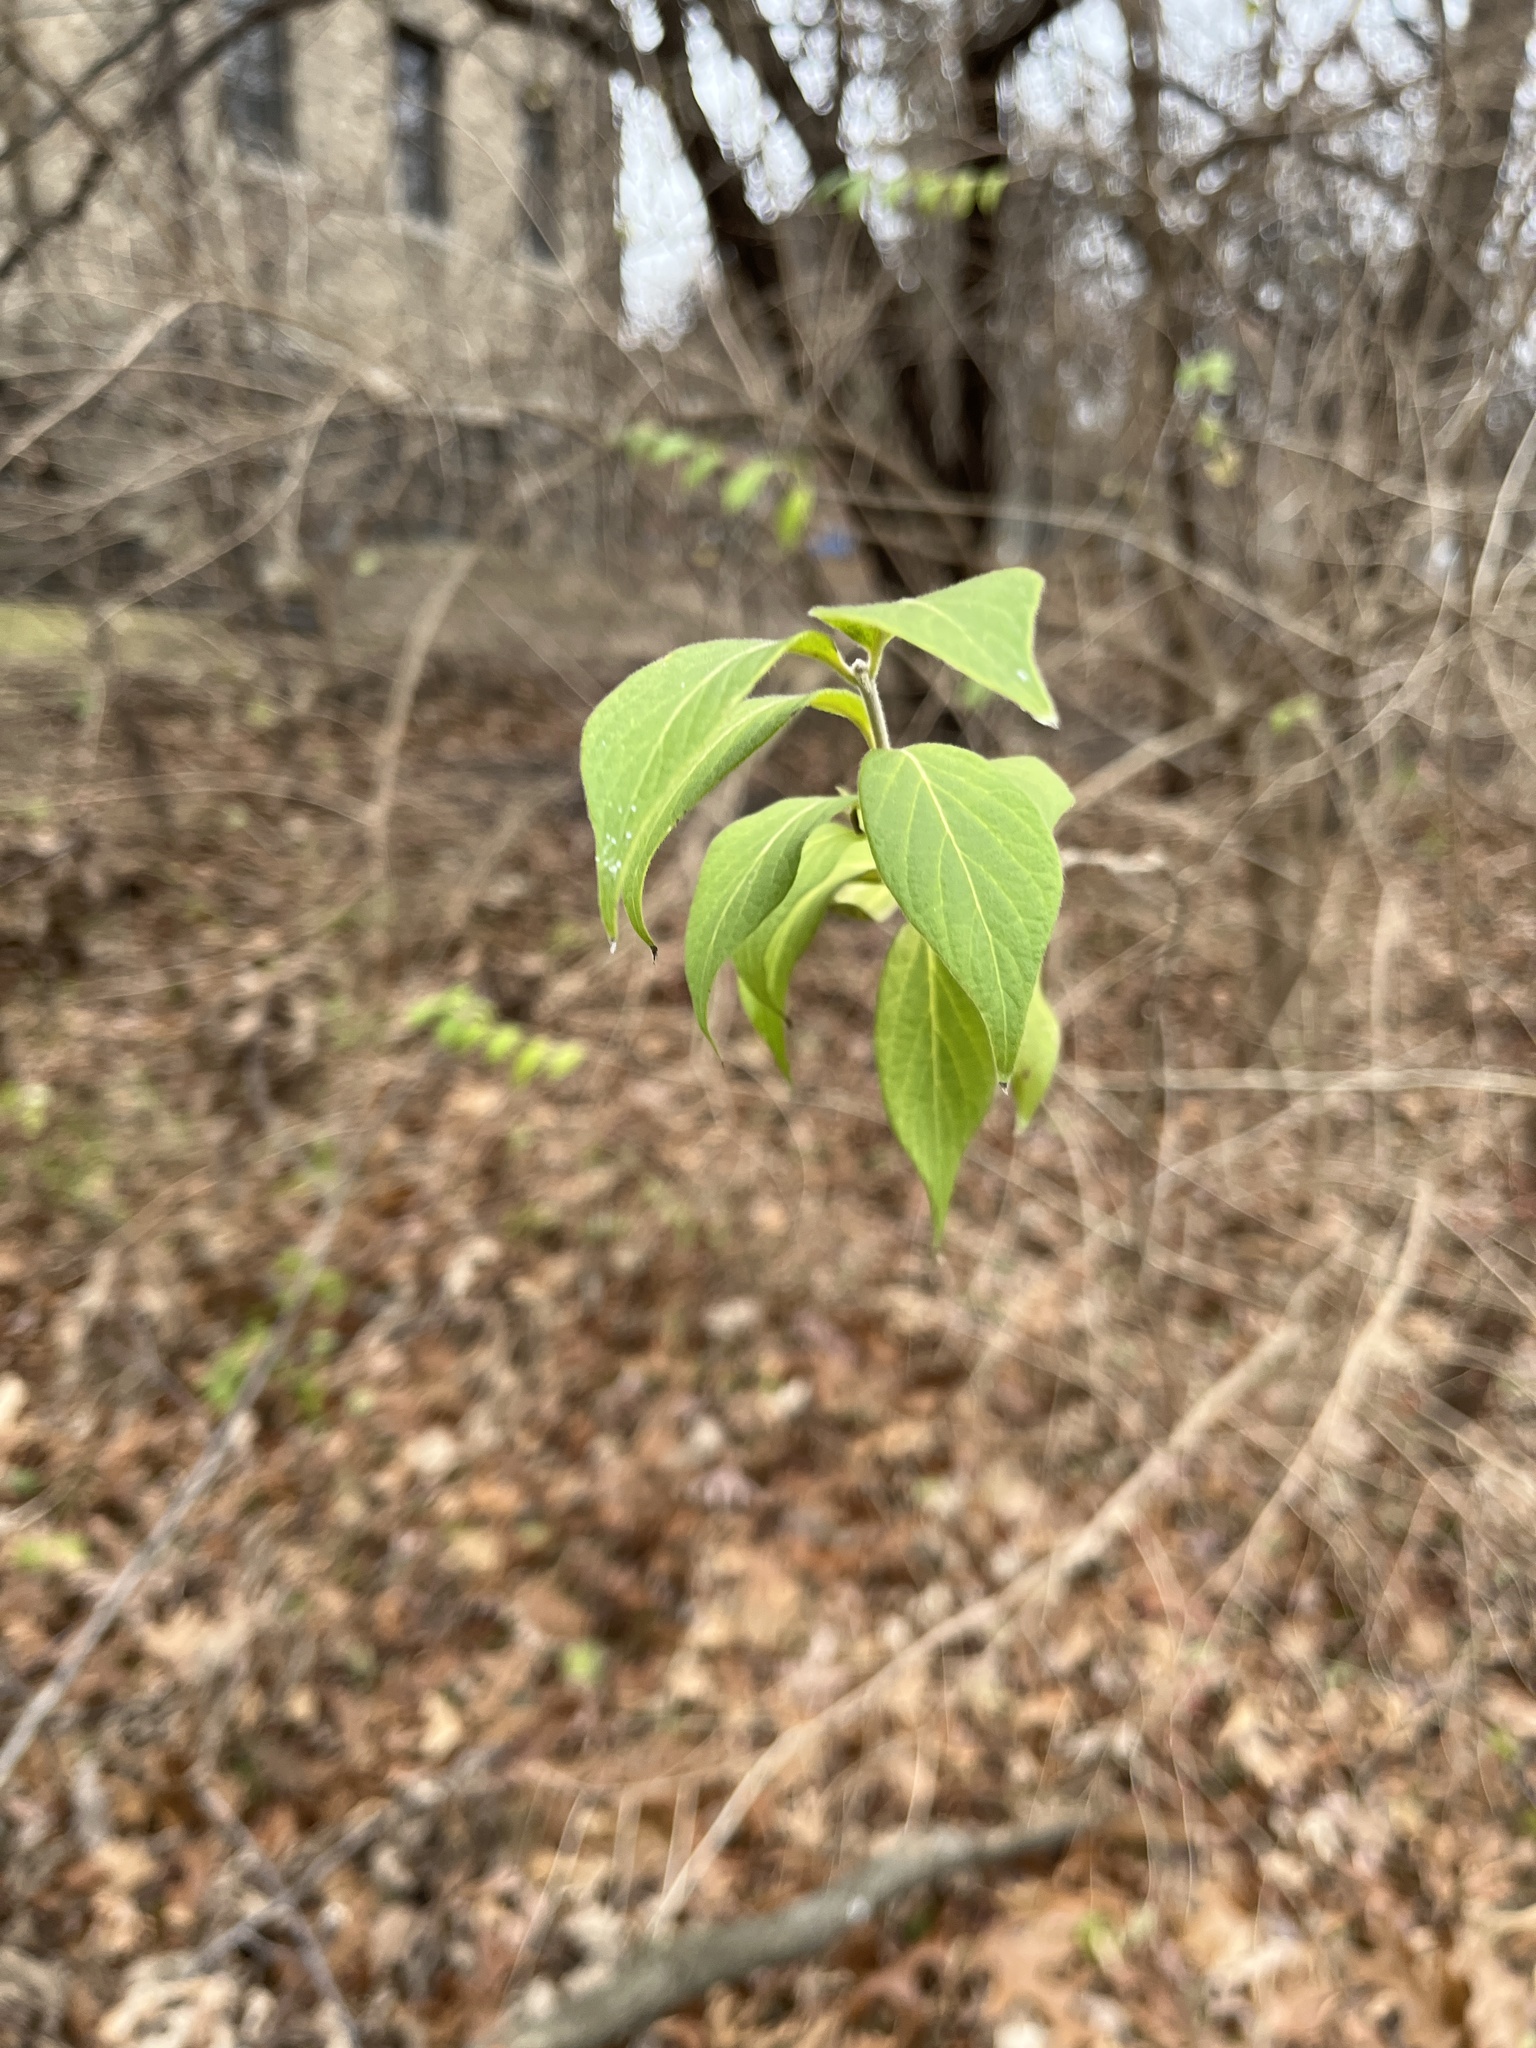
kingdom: Plantae
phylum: Tracheophyta
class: Magnoliopsida
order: Dipsacales
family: Caprifoliaceae
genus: Lonicera
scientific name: Lonicera maackii
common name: Amur honeysuckle
